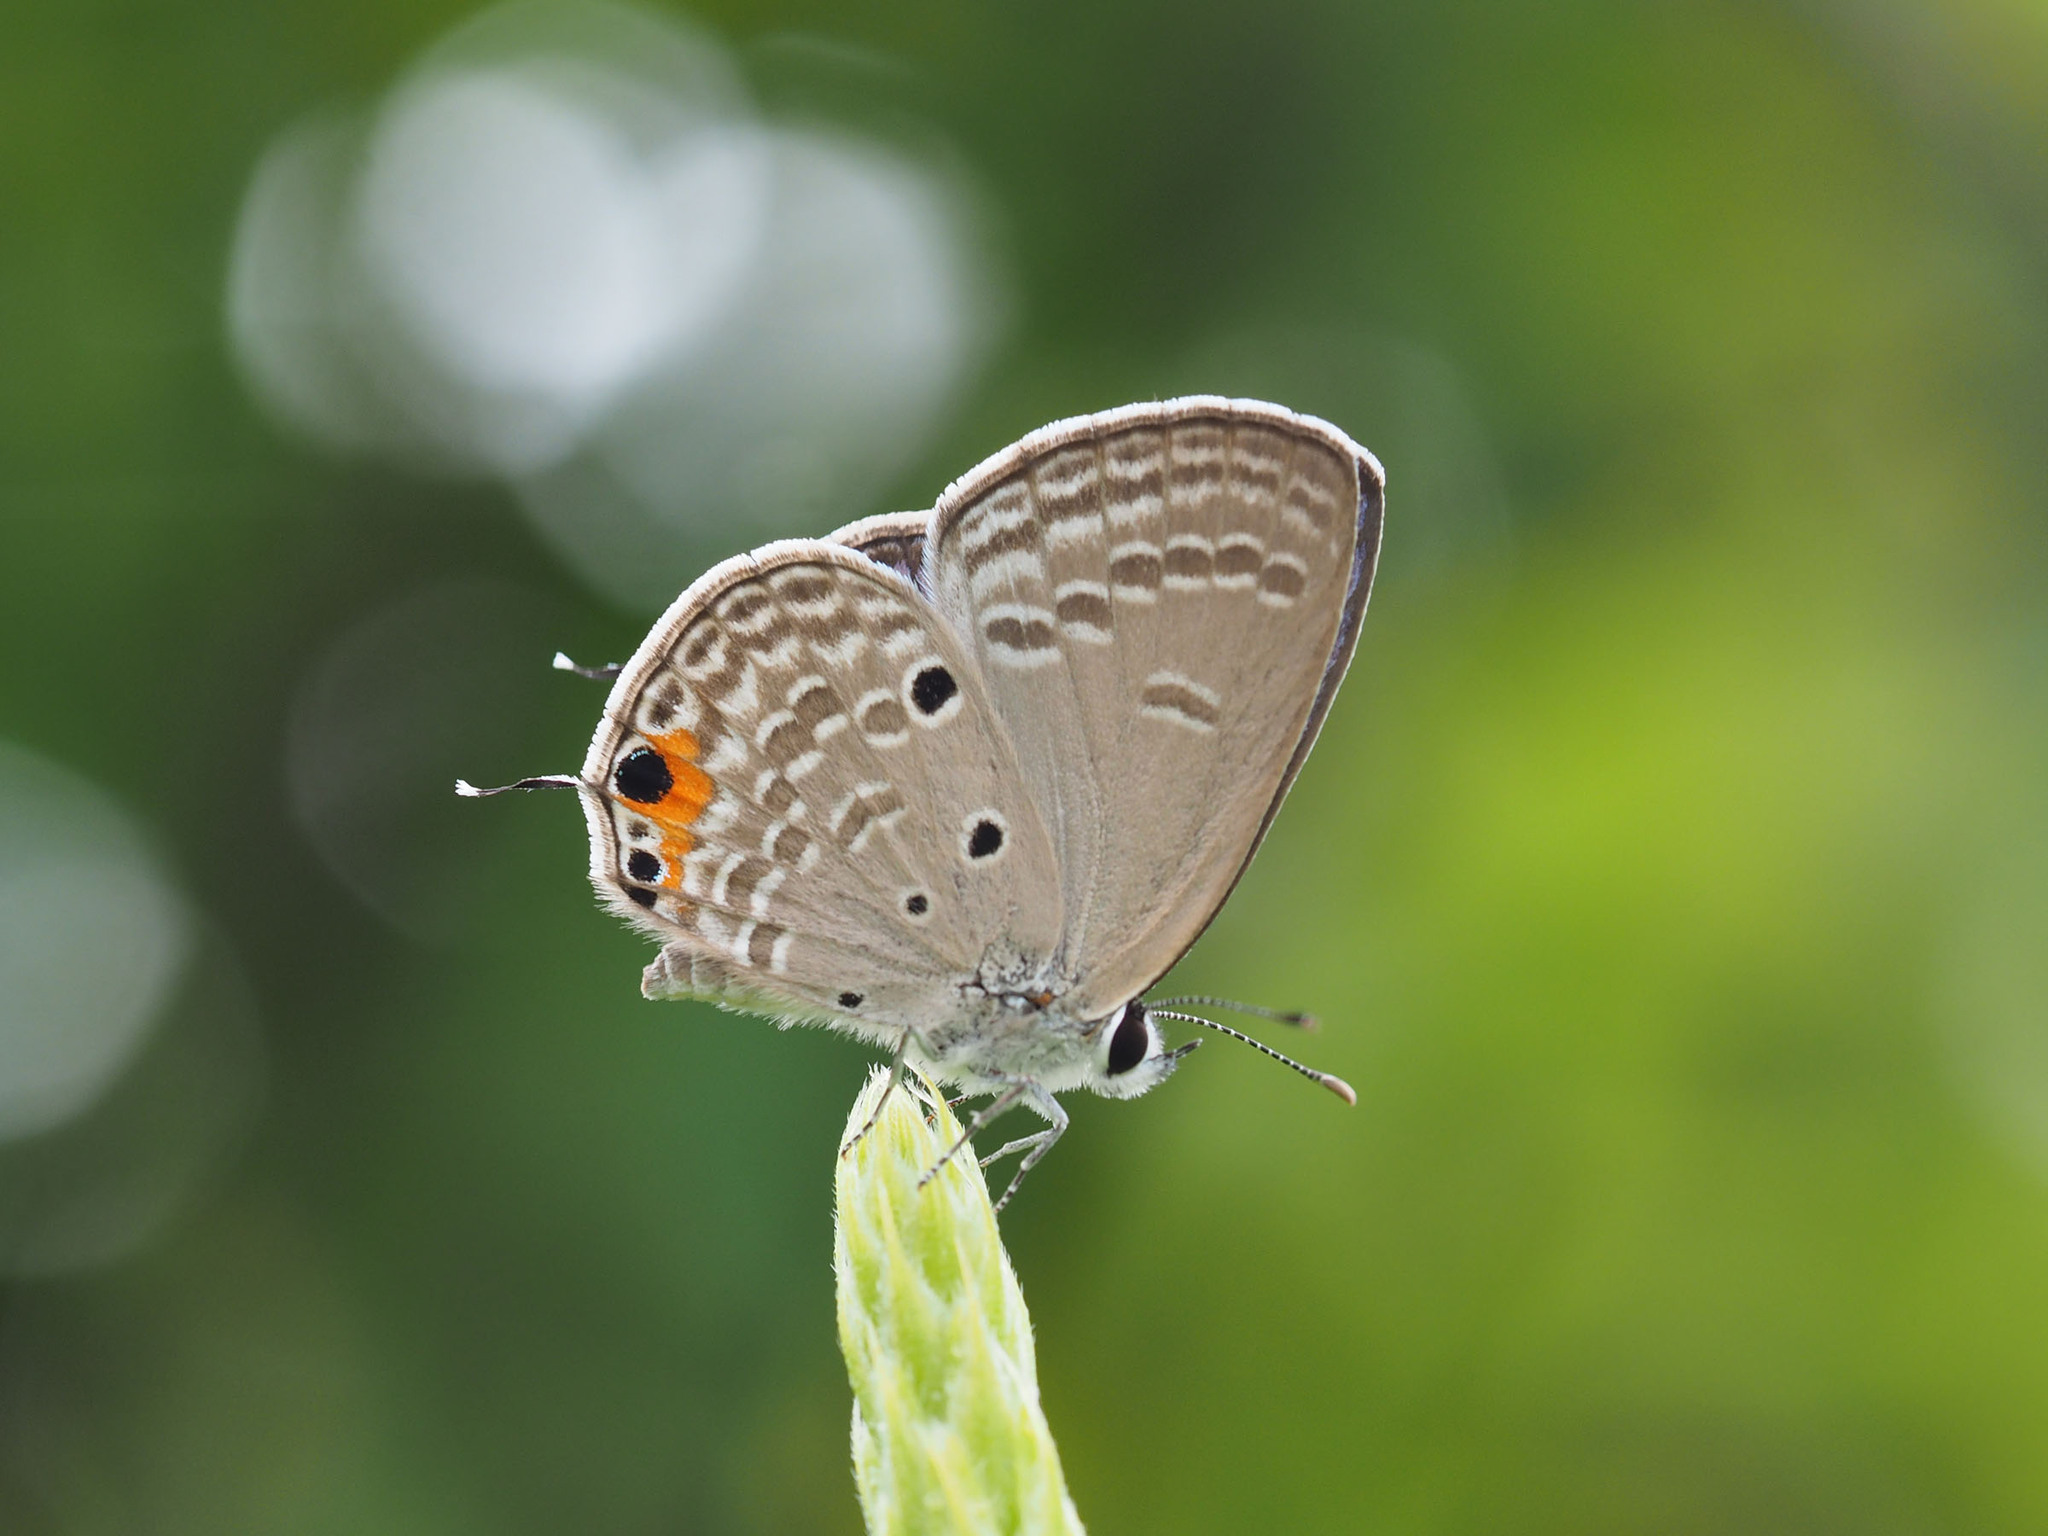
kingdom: Animalia
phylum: Arthropoda
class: Insecta
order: Lepidoptera
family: Lycaenidae
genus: Luthrodes
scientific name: Luthrodes pandava
